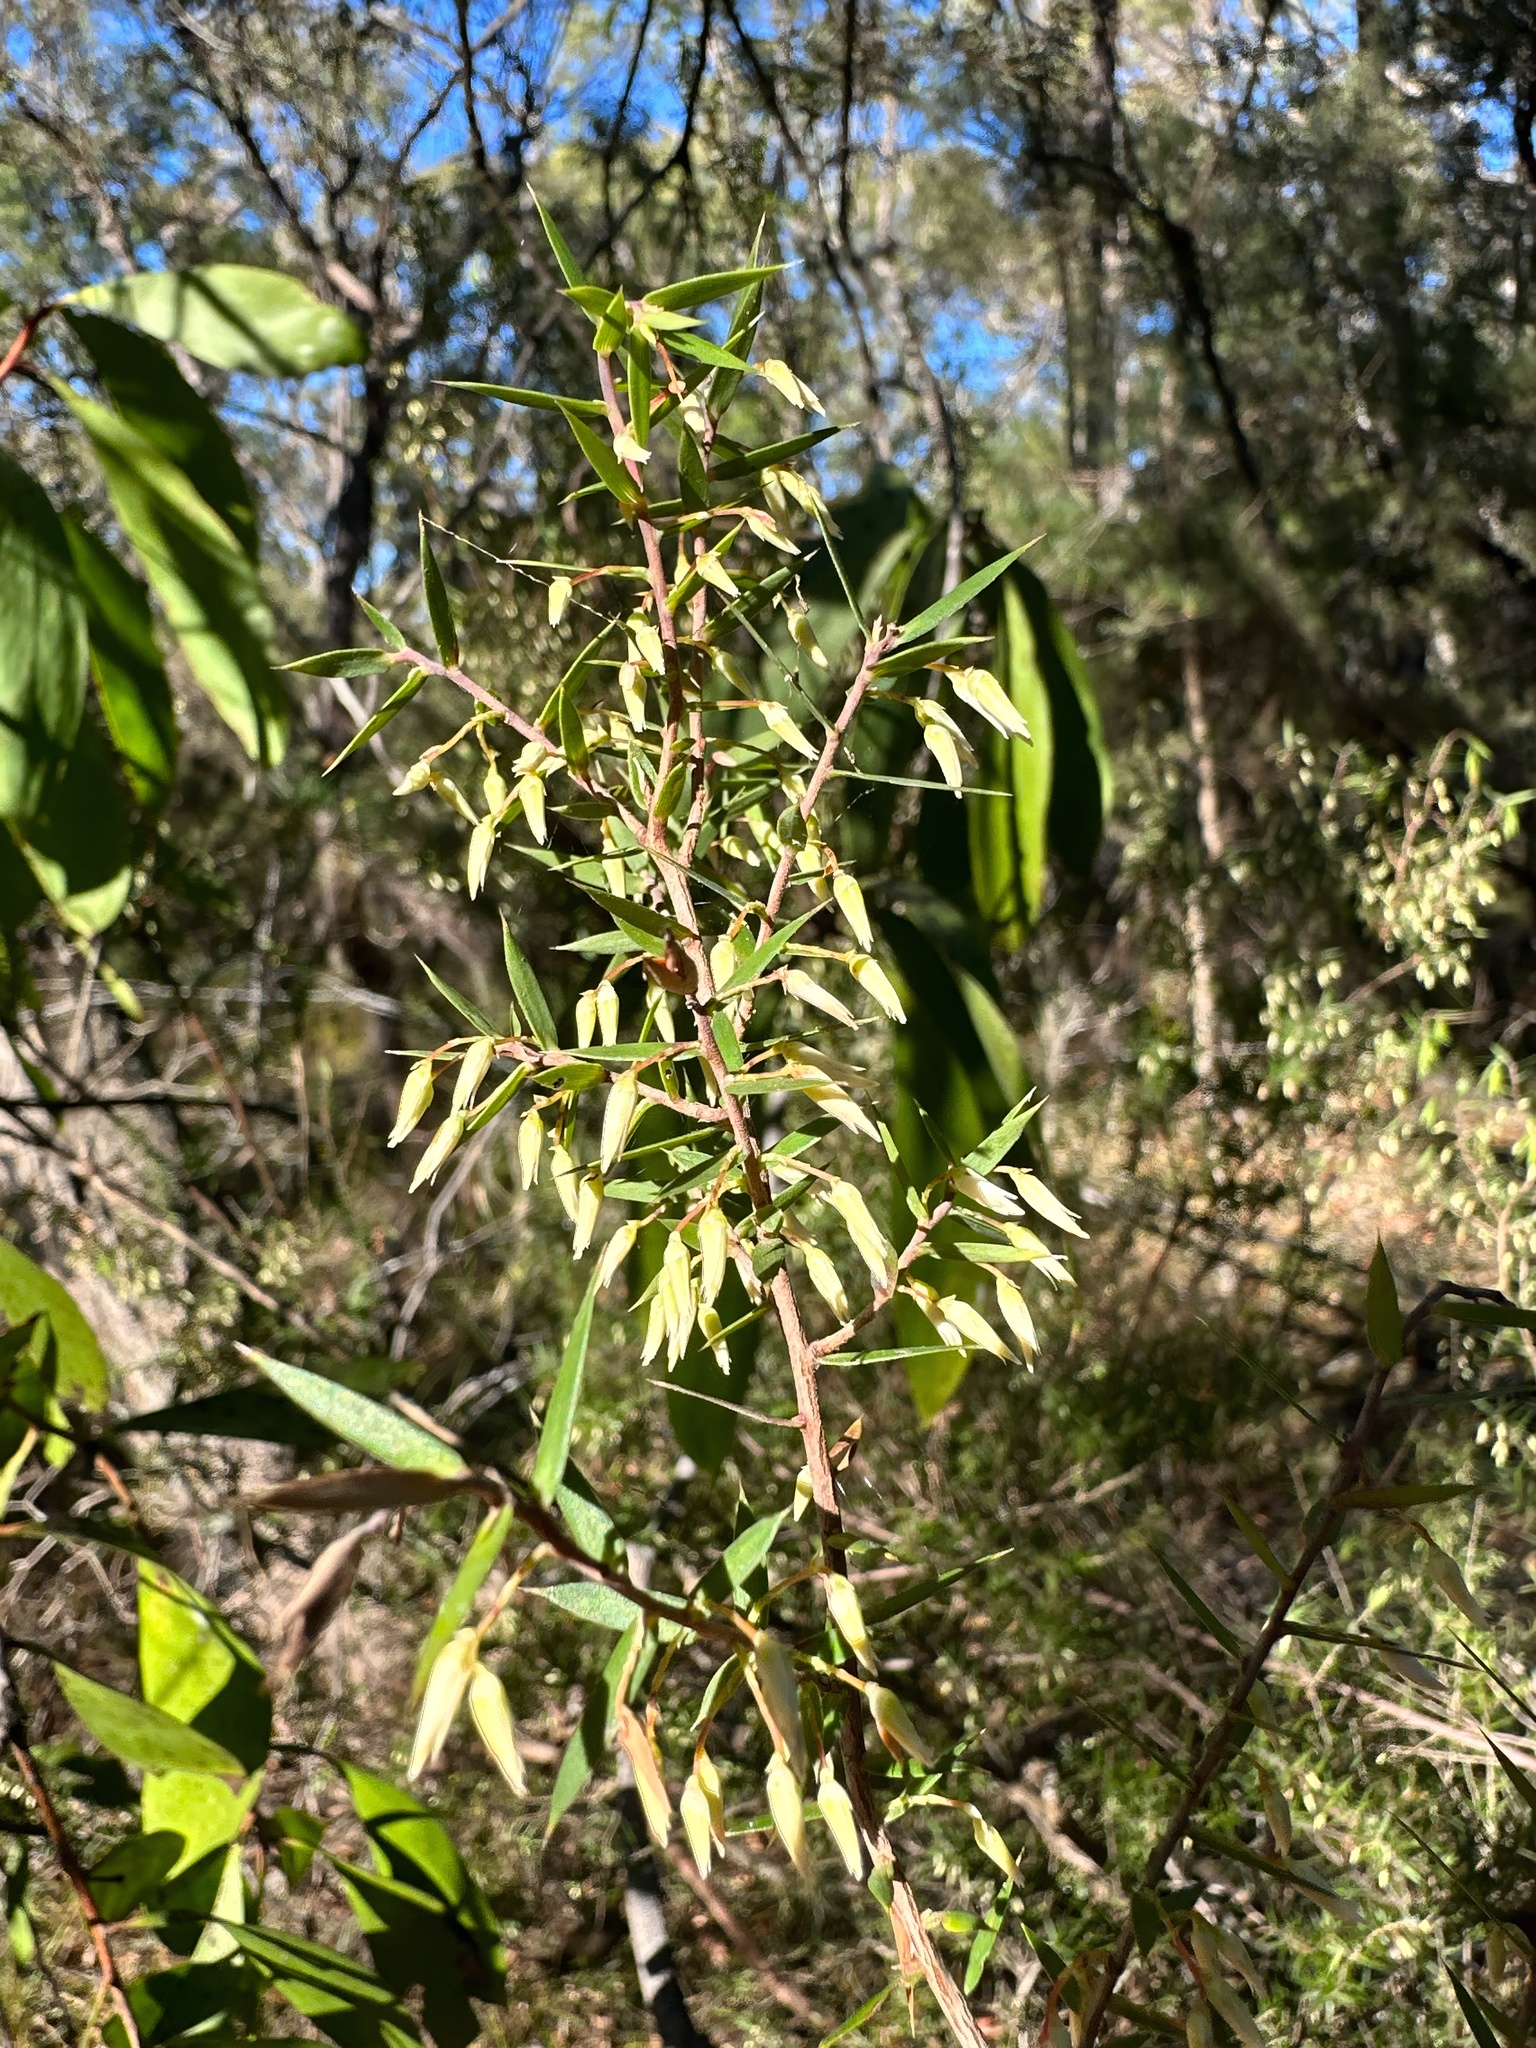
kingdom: Plantae
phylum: Tracheophyta
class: Magnoliopsida
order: Ericales
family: Ericaceae
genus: Styphelia
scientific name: Styphelia setigera
